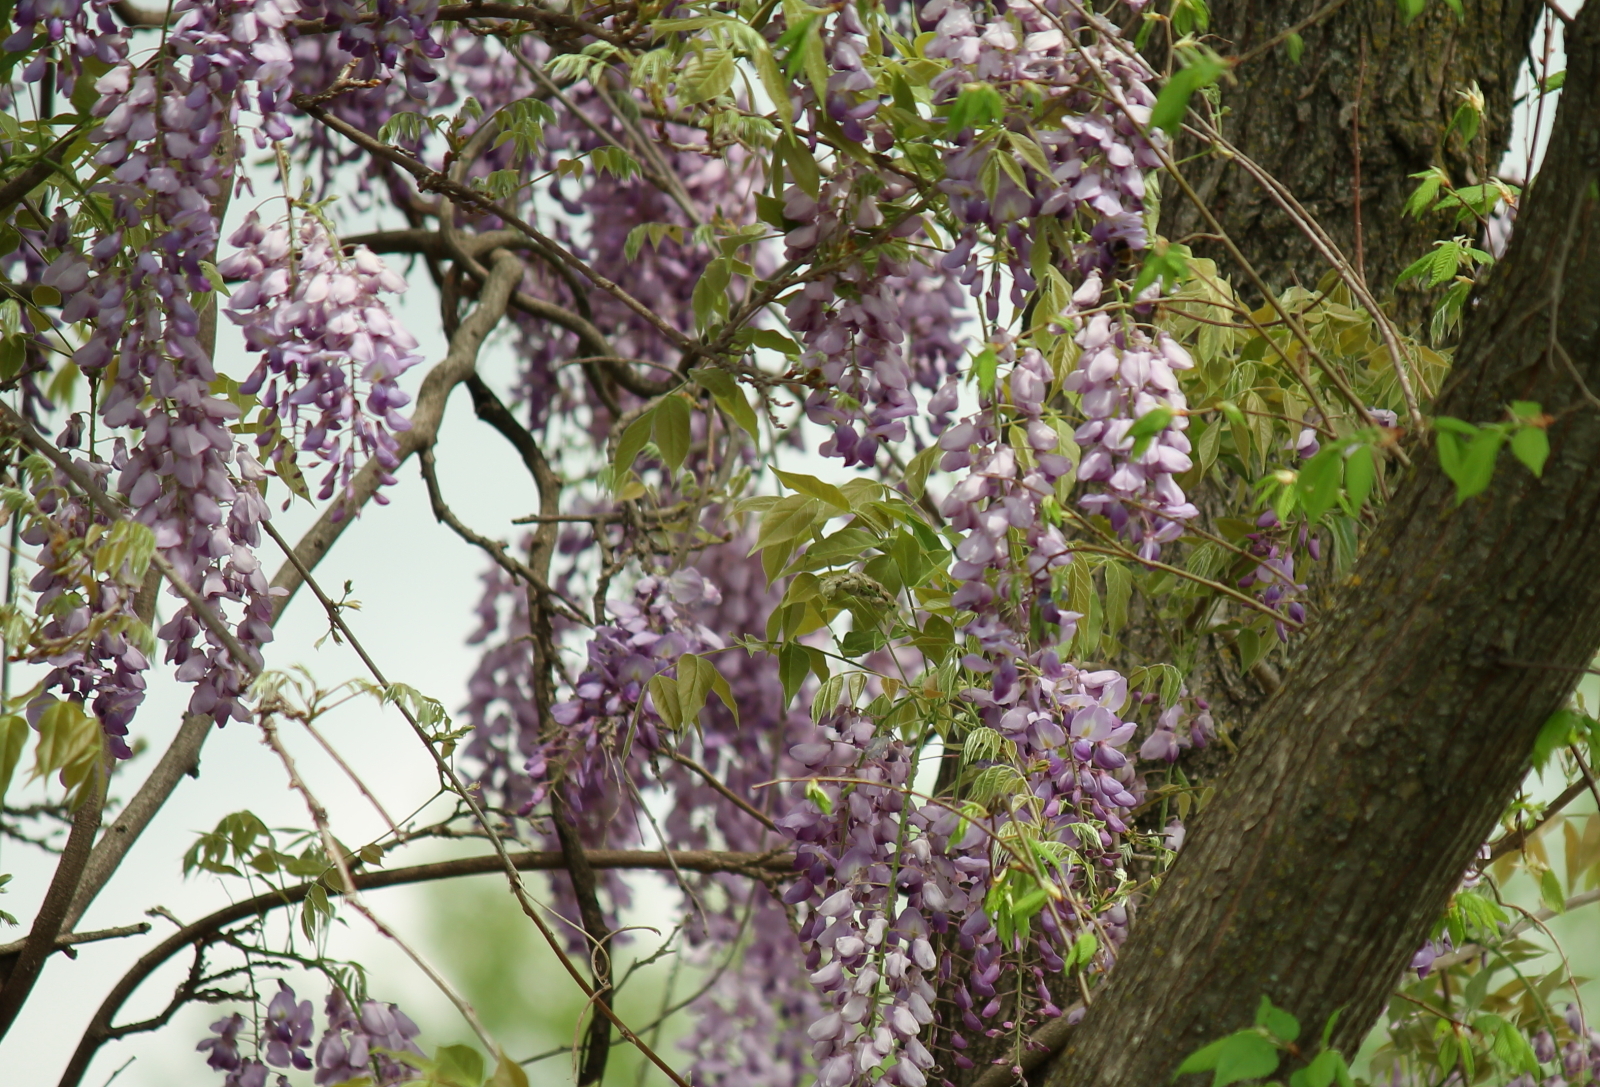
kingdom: Plantae
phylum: Tracheophyta
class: Magnoliopsida
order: Fabales
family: Fabaceae
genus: Wisteria
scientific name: Wisteria sinensis
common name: Chinese wisteria
